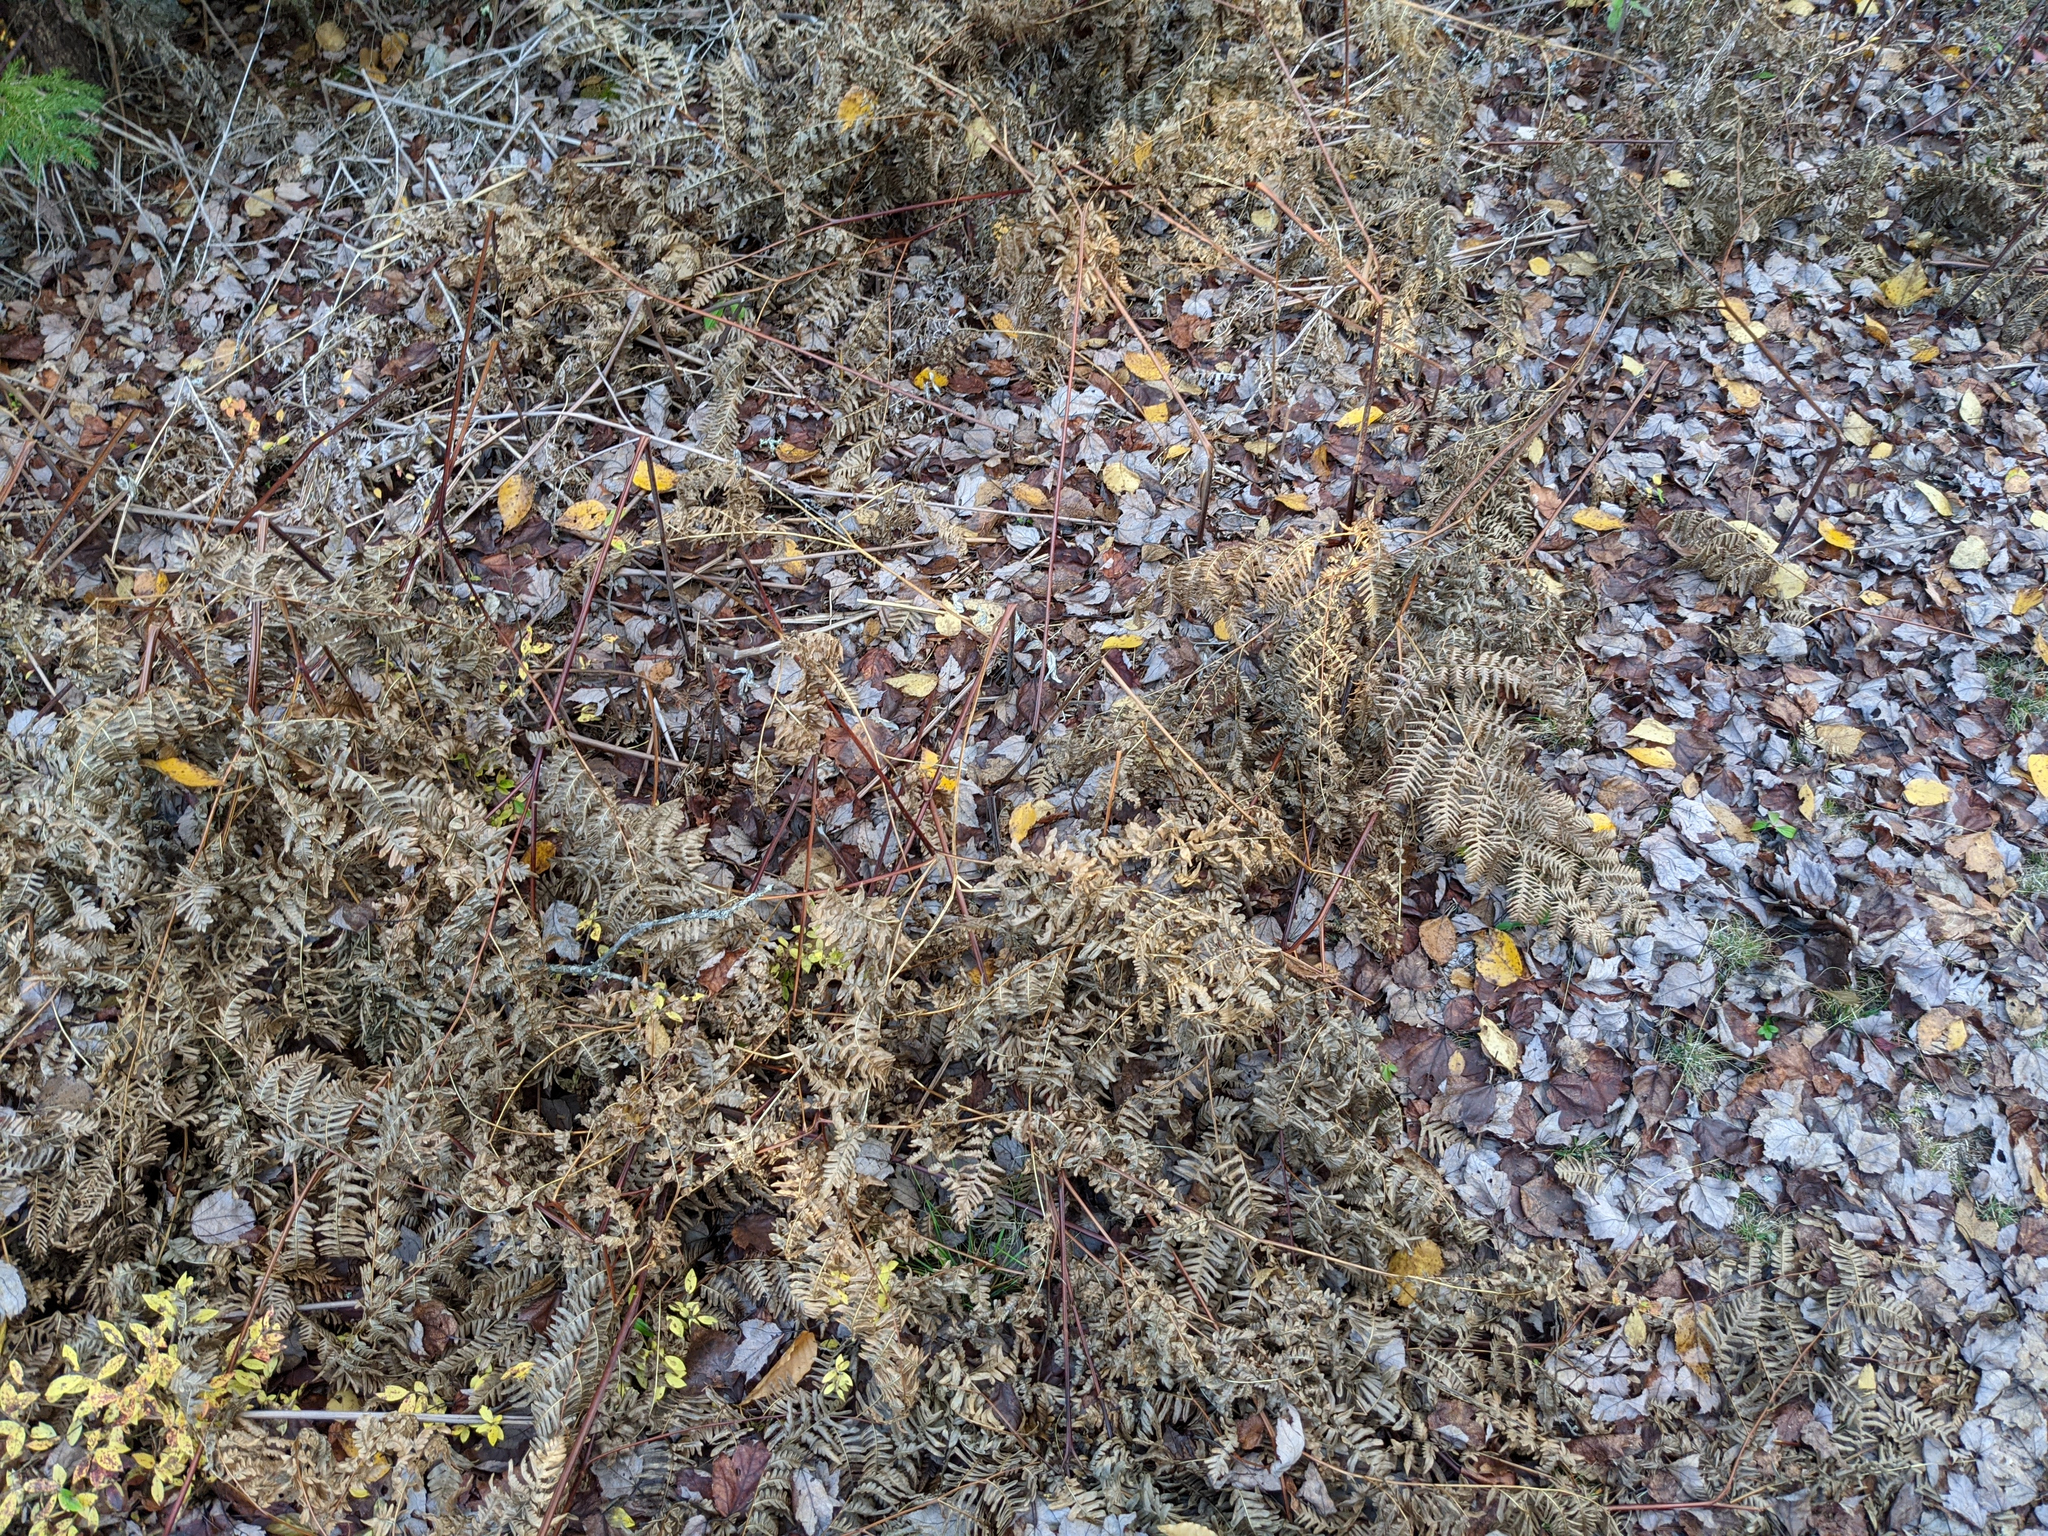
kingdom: Plantae
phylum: Tracheophyta
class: Polypodiopsida
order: Polypodiales
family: Dennstaedtiaceae
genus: Pteridium
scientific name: Pteridium aquilinum
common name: Bracken
